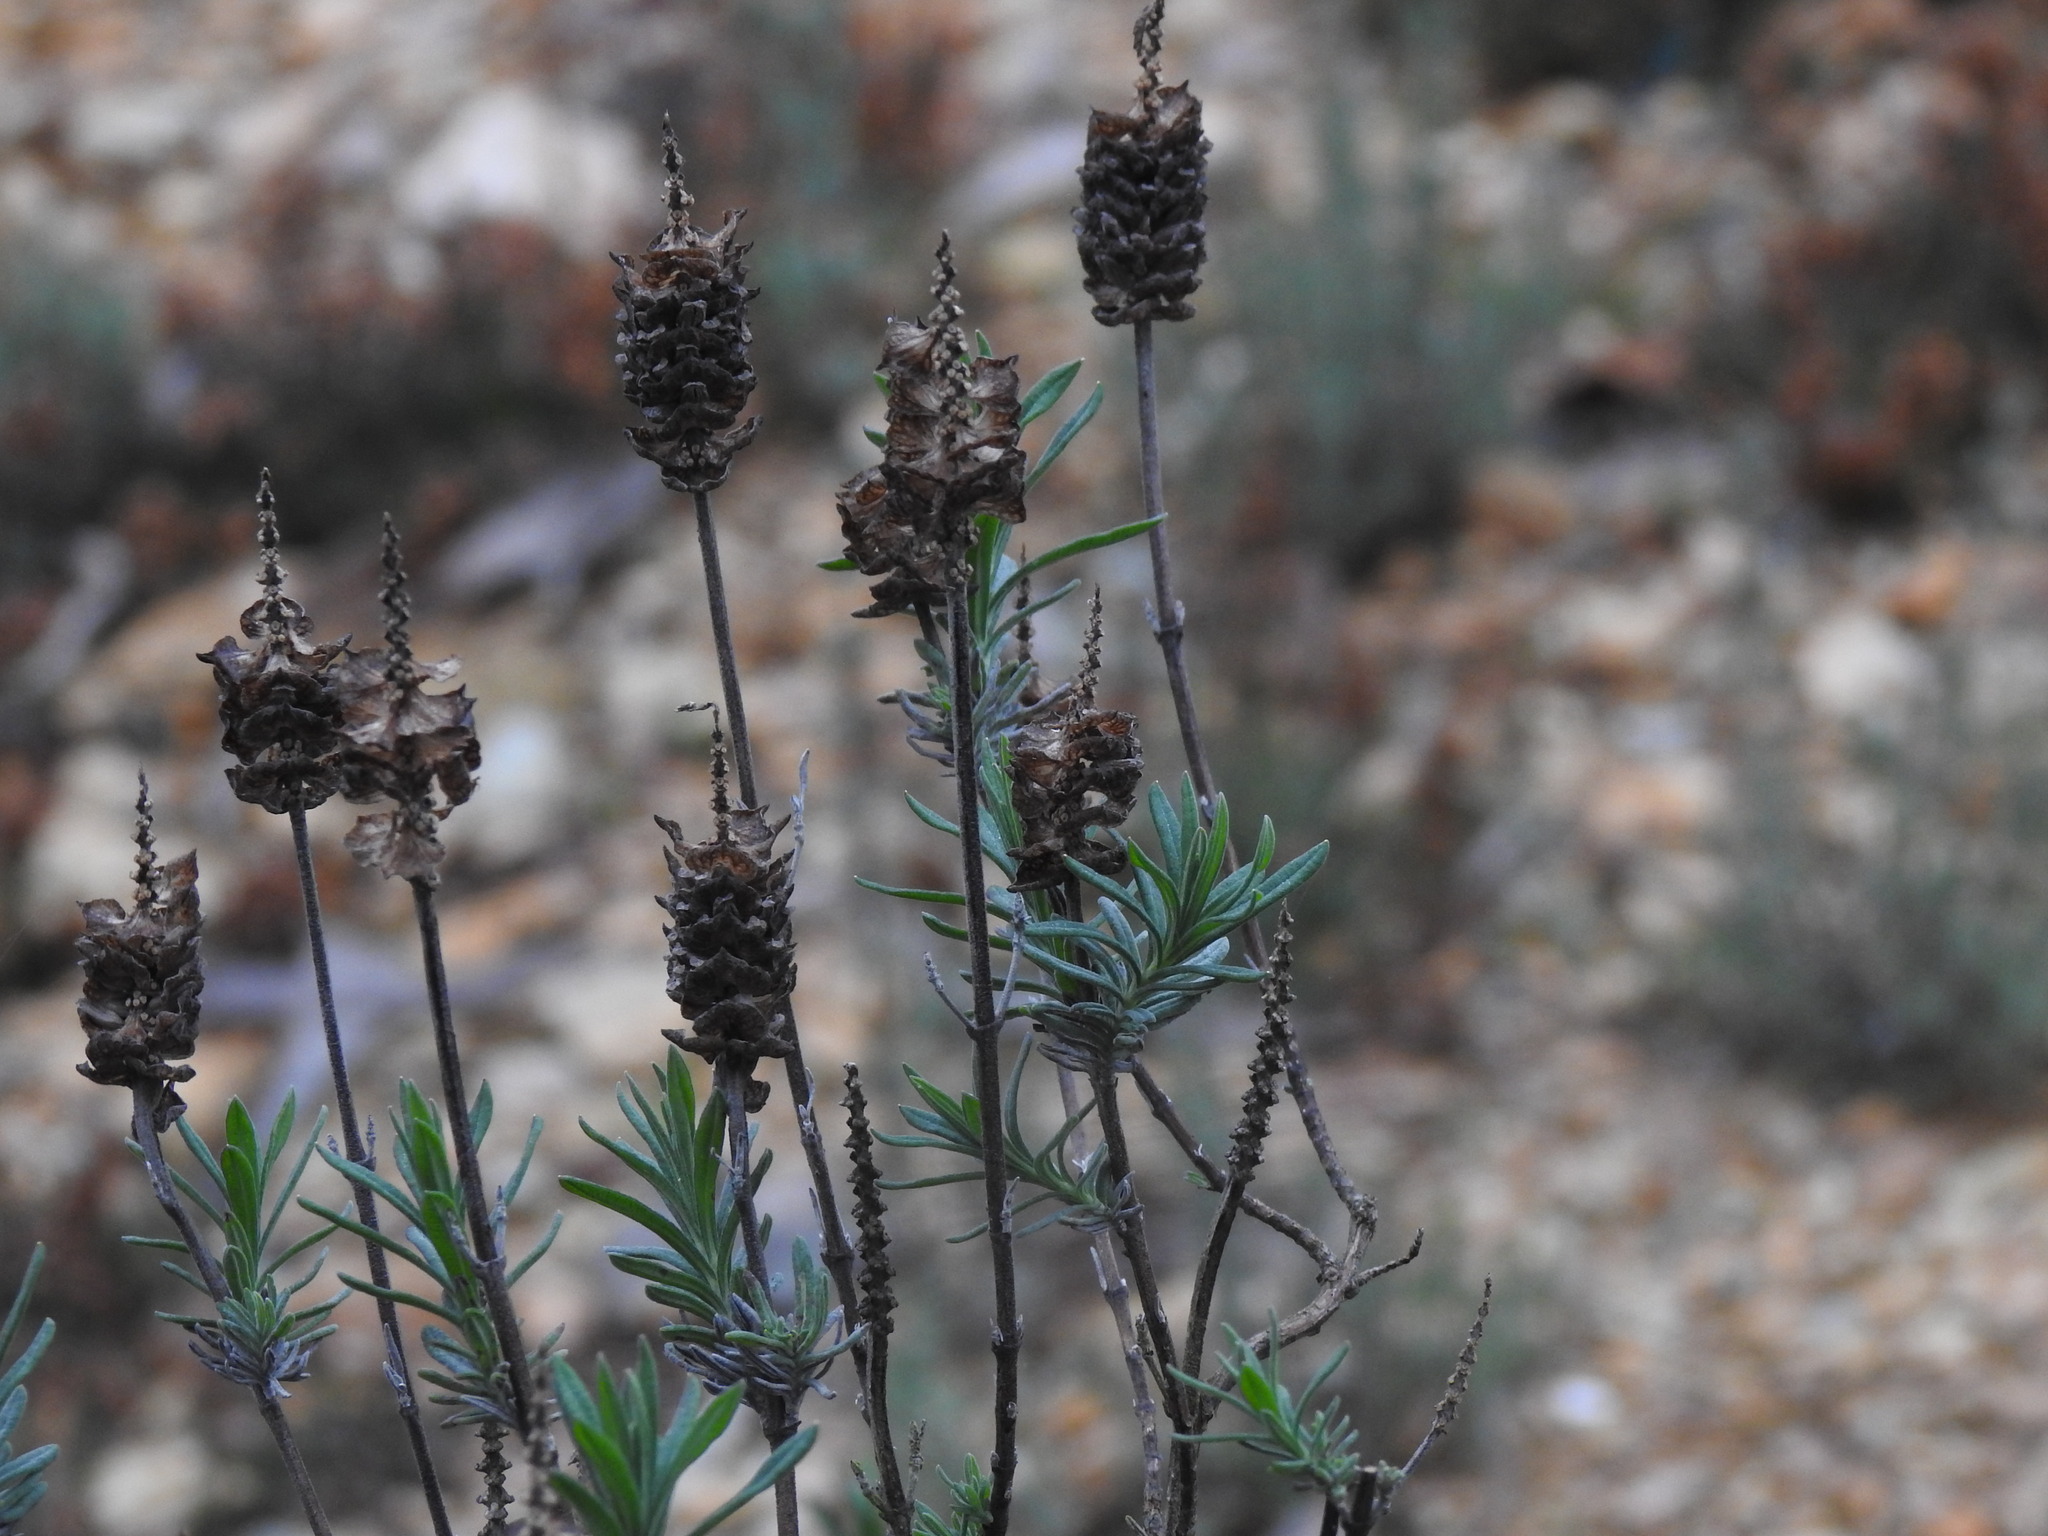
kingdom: Plantae
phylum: Tracheophyta
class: Magnoliopsida
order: Lamiales
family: Lamiaceae
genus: Lavandula
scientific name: Lavandula stoechas
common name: French lavender
